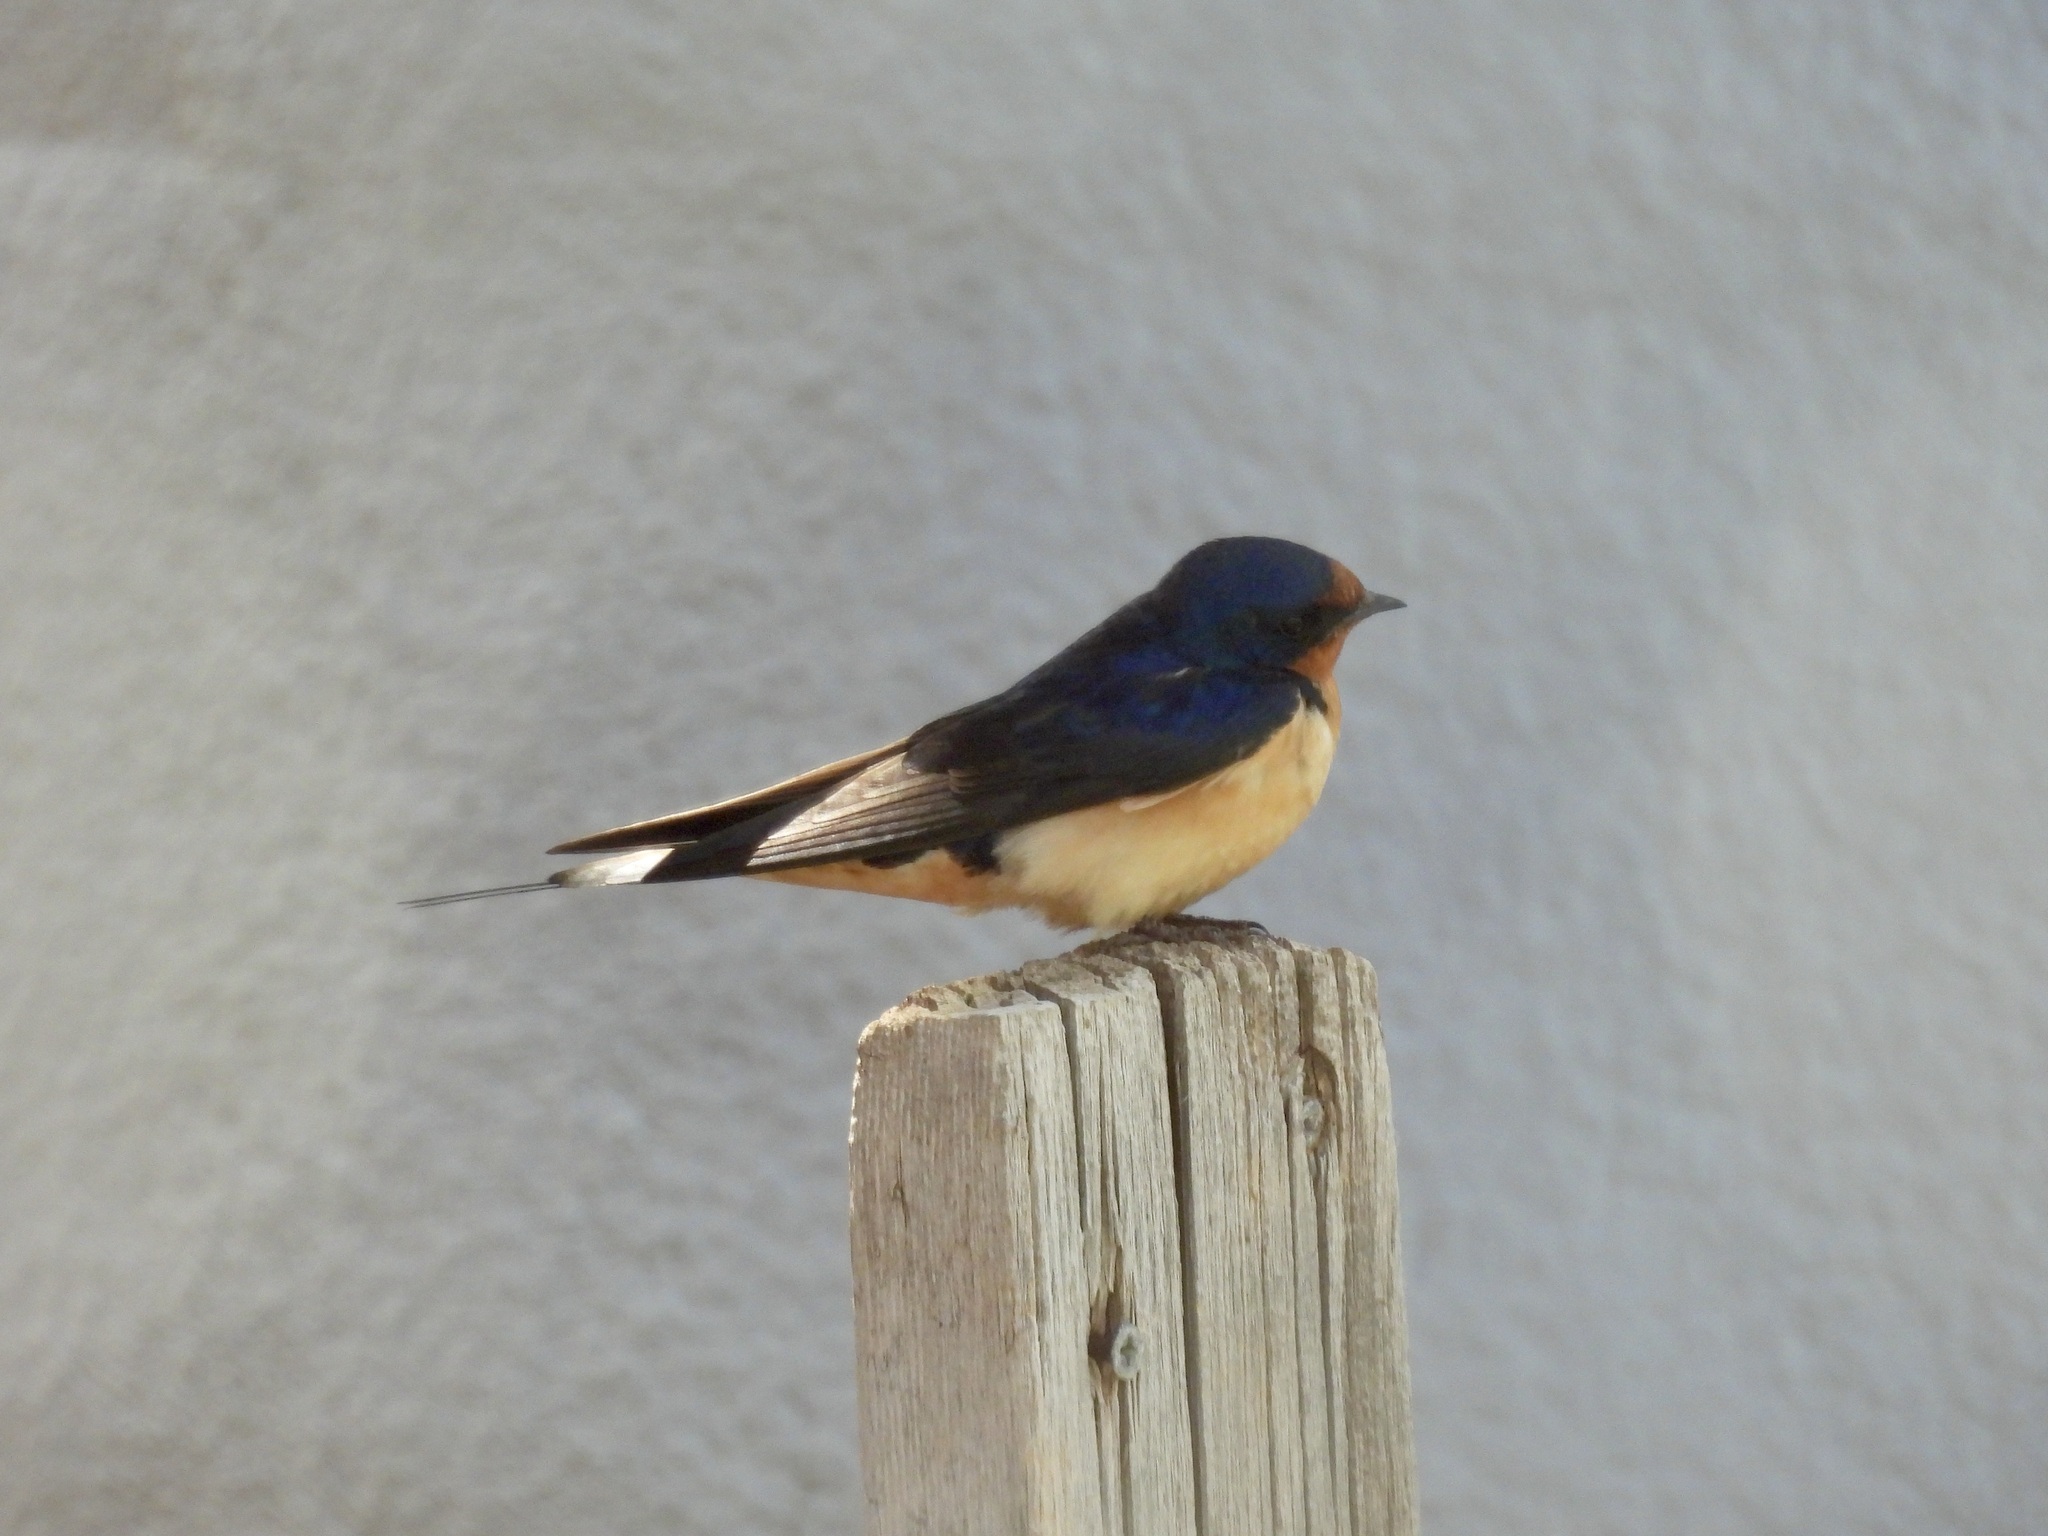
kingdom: Animalia
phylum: Chordata
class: Aves
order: Passeriformes
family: Hirundinidae
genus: Hirundo
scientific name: Hirundo rustica
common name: Barn swallow
